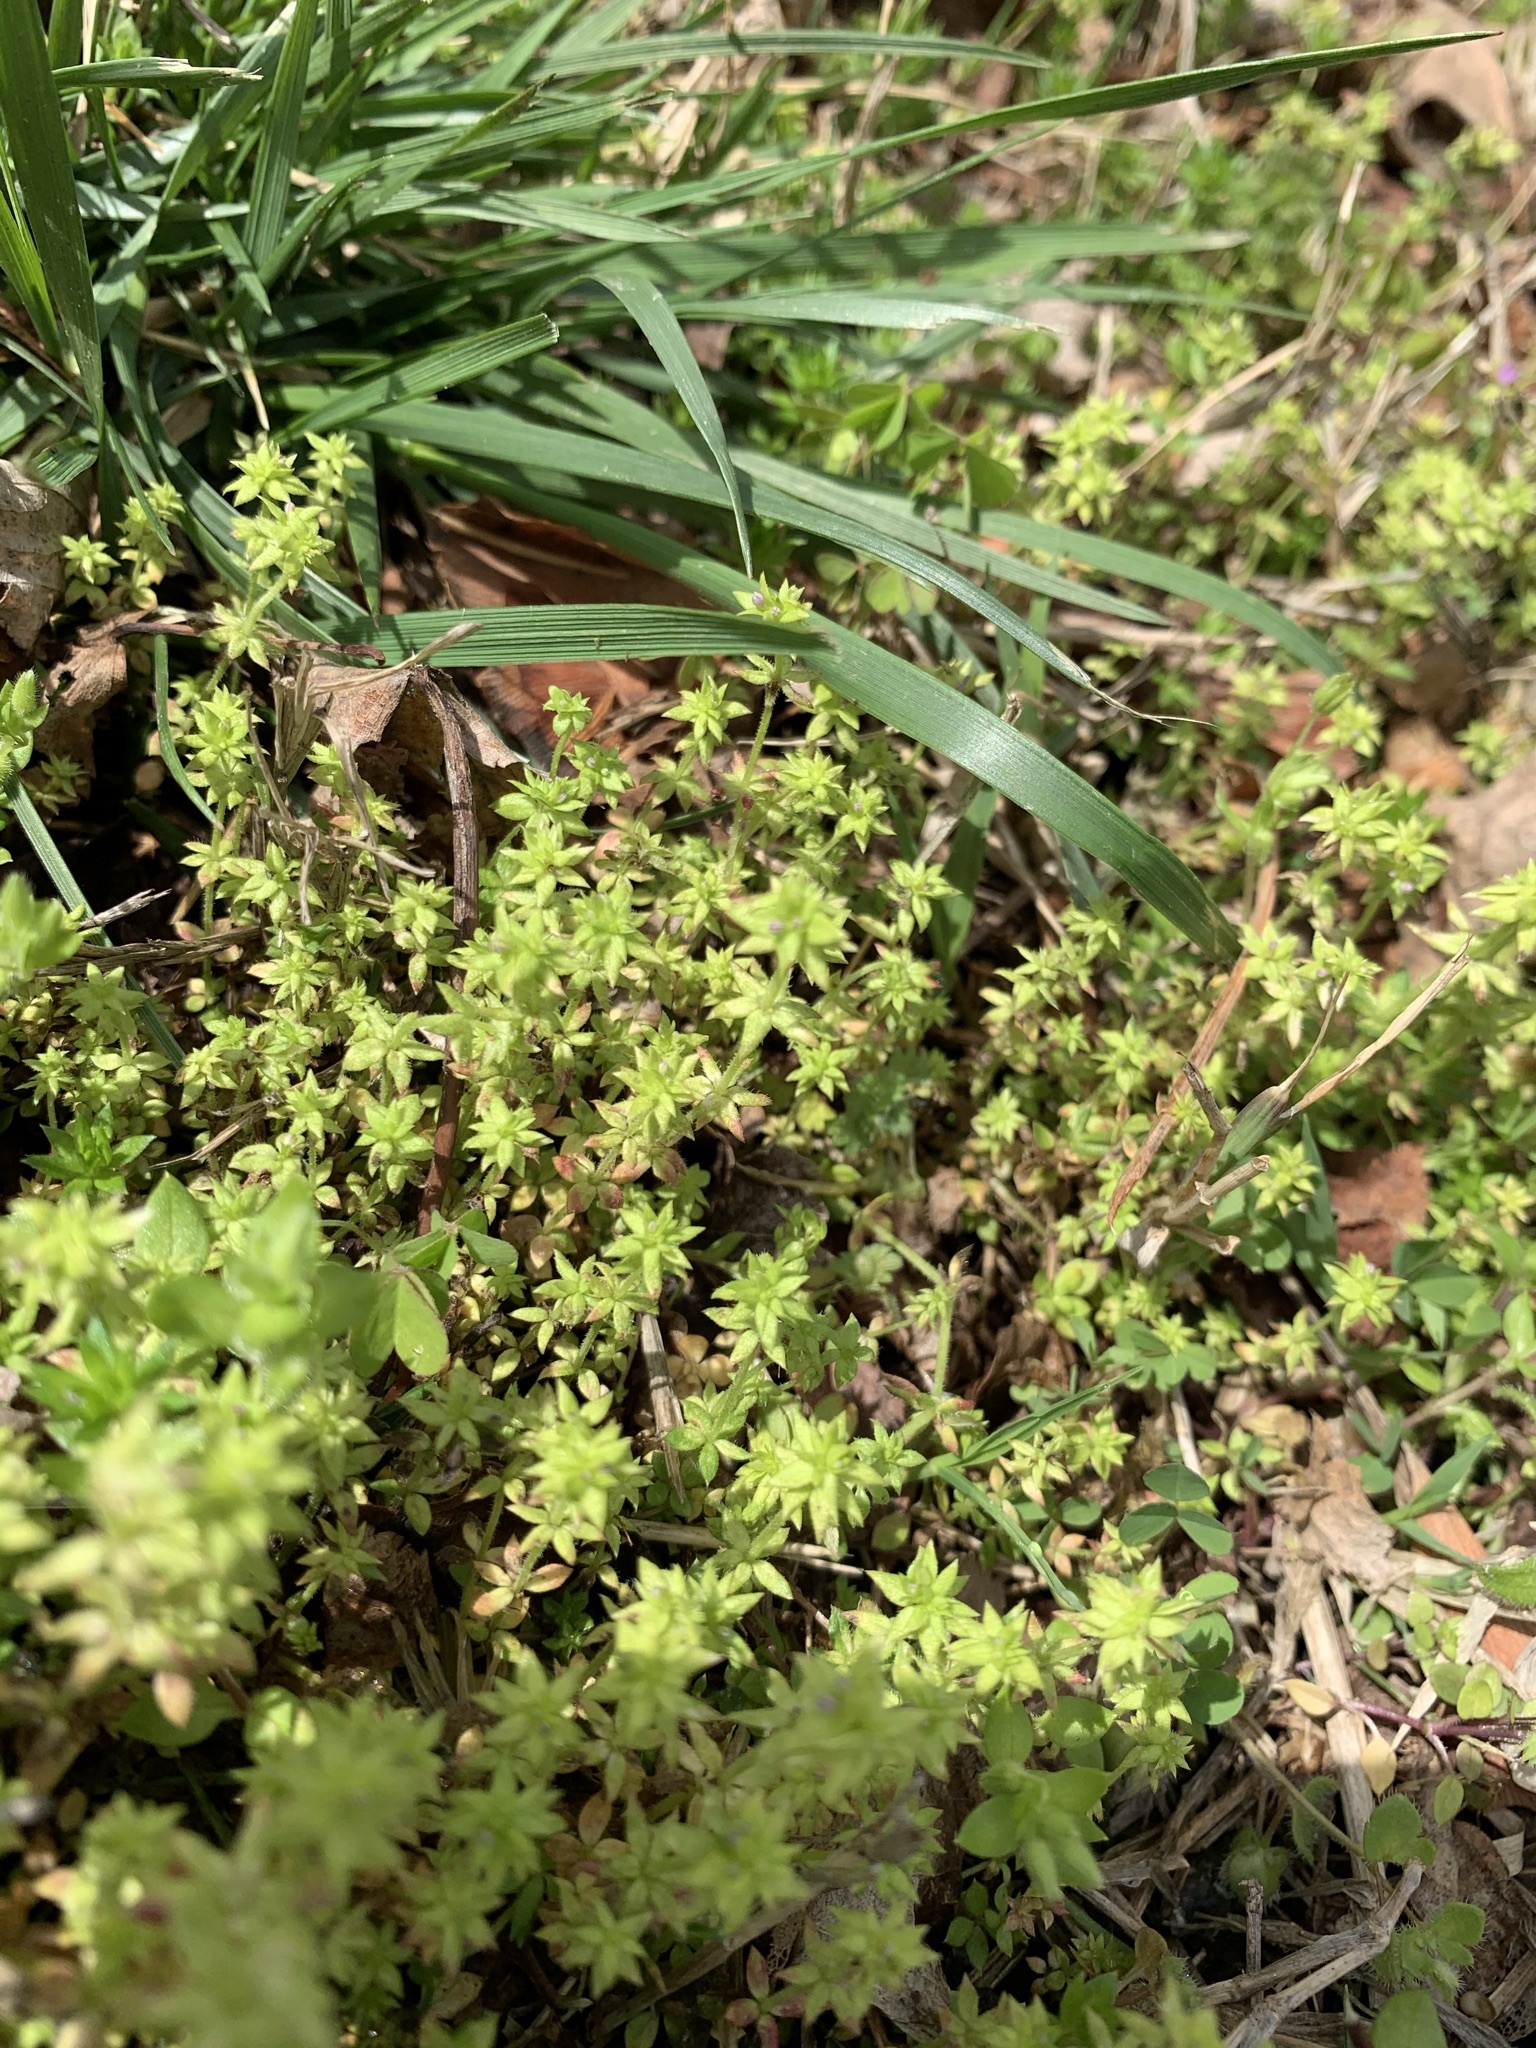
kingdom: Plantae
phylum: Tracheophyta
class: Magnoliopsida
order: Gentianales
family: Rubiaceae
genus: Sherardia
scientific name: Sherardia arvensis
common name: Field madder
